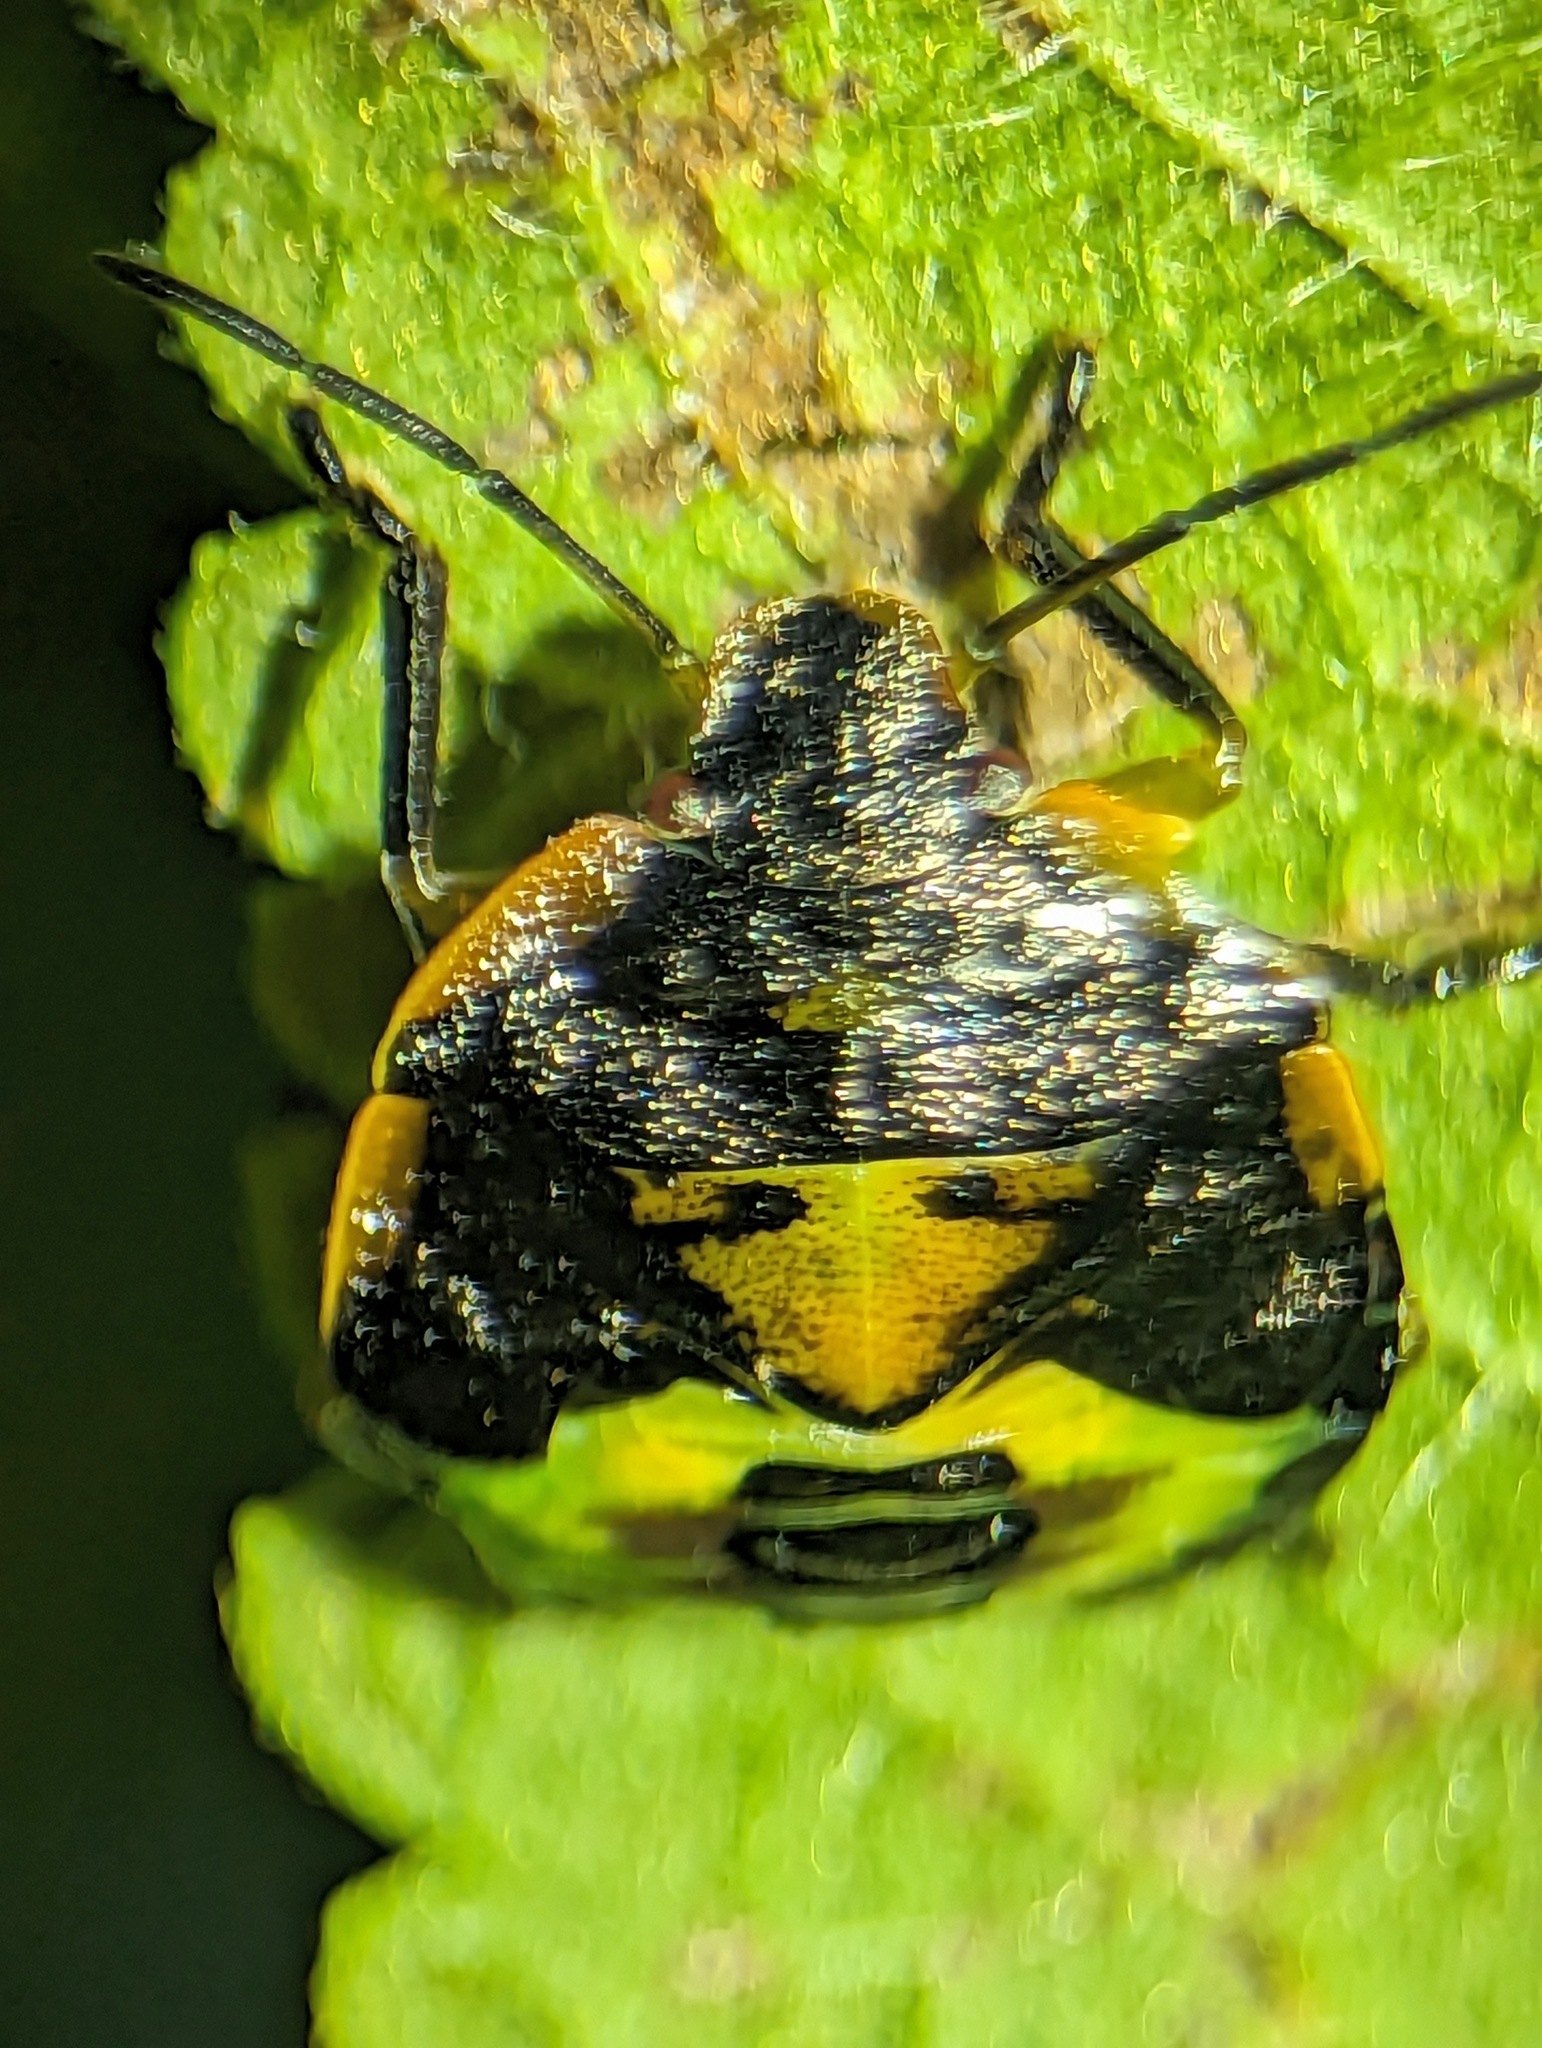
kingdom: Animalia
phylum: Arthropoda
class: Insecta
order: Hemiptera
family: Pentatomidae
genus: Chinavia
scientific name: Chinavia hilaris
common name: Green stink bug
